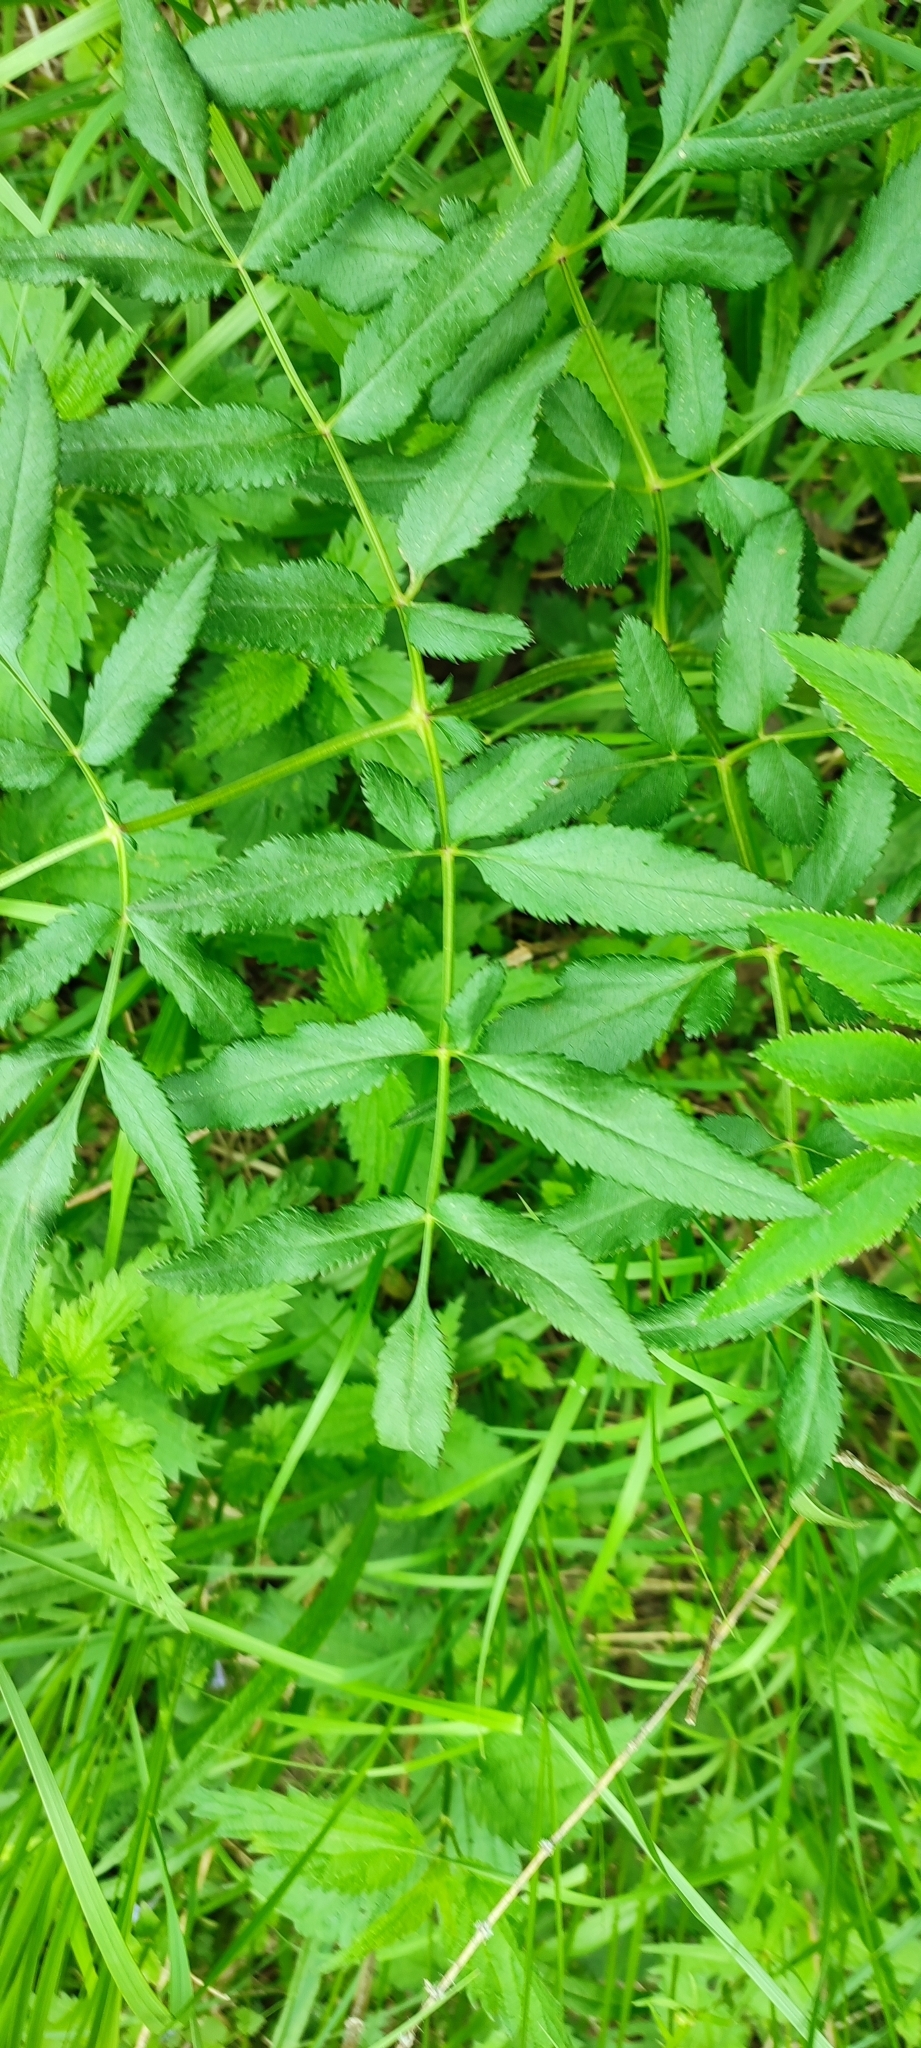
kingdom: Plantae
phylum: Tracheophyta
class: Magnoliopsida
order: Apiales
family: Apiaceae
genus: Angelica
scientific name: Angelica sylvestris
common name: Wild angelica
